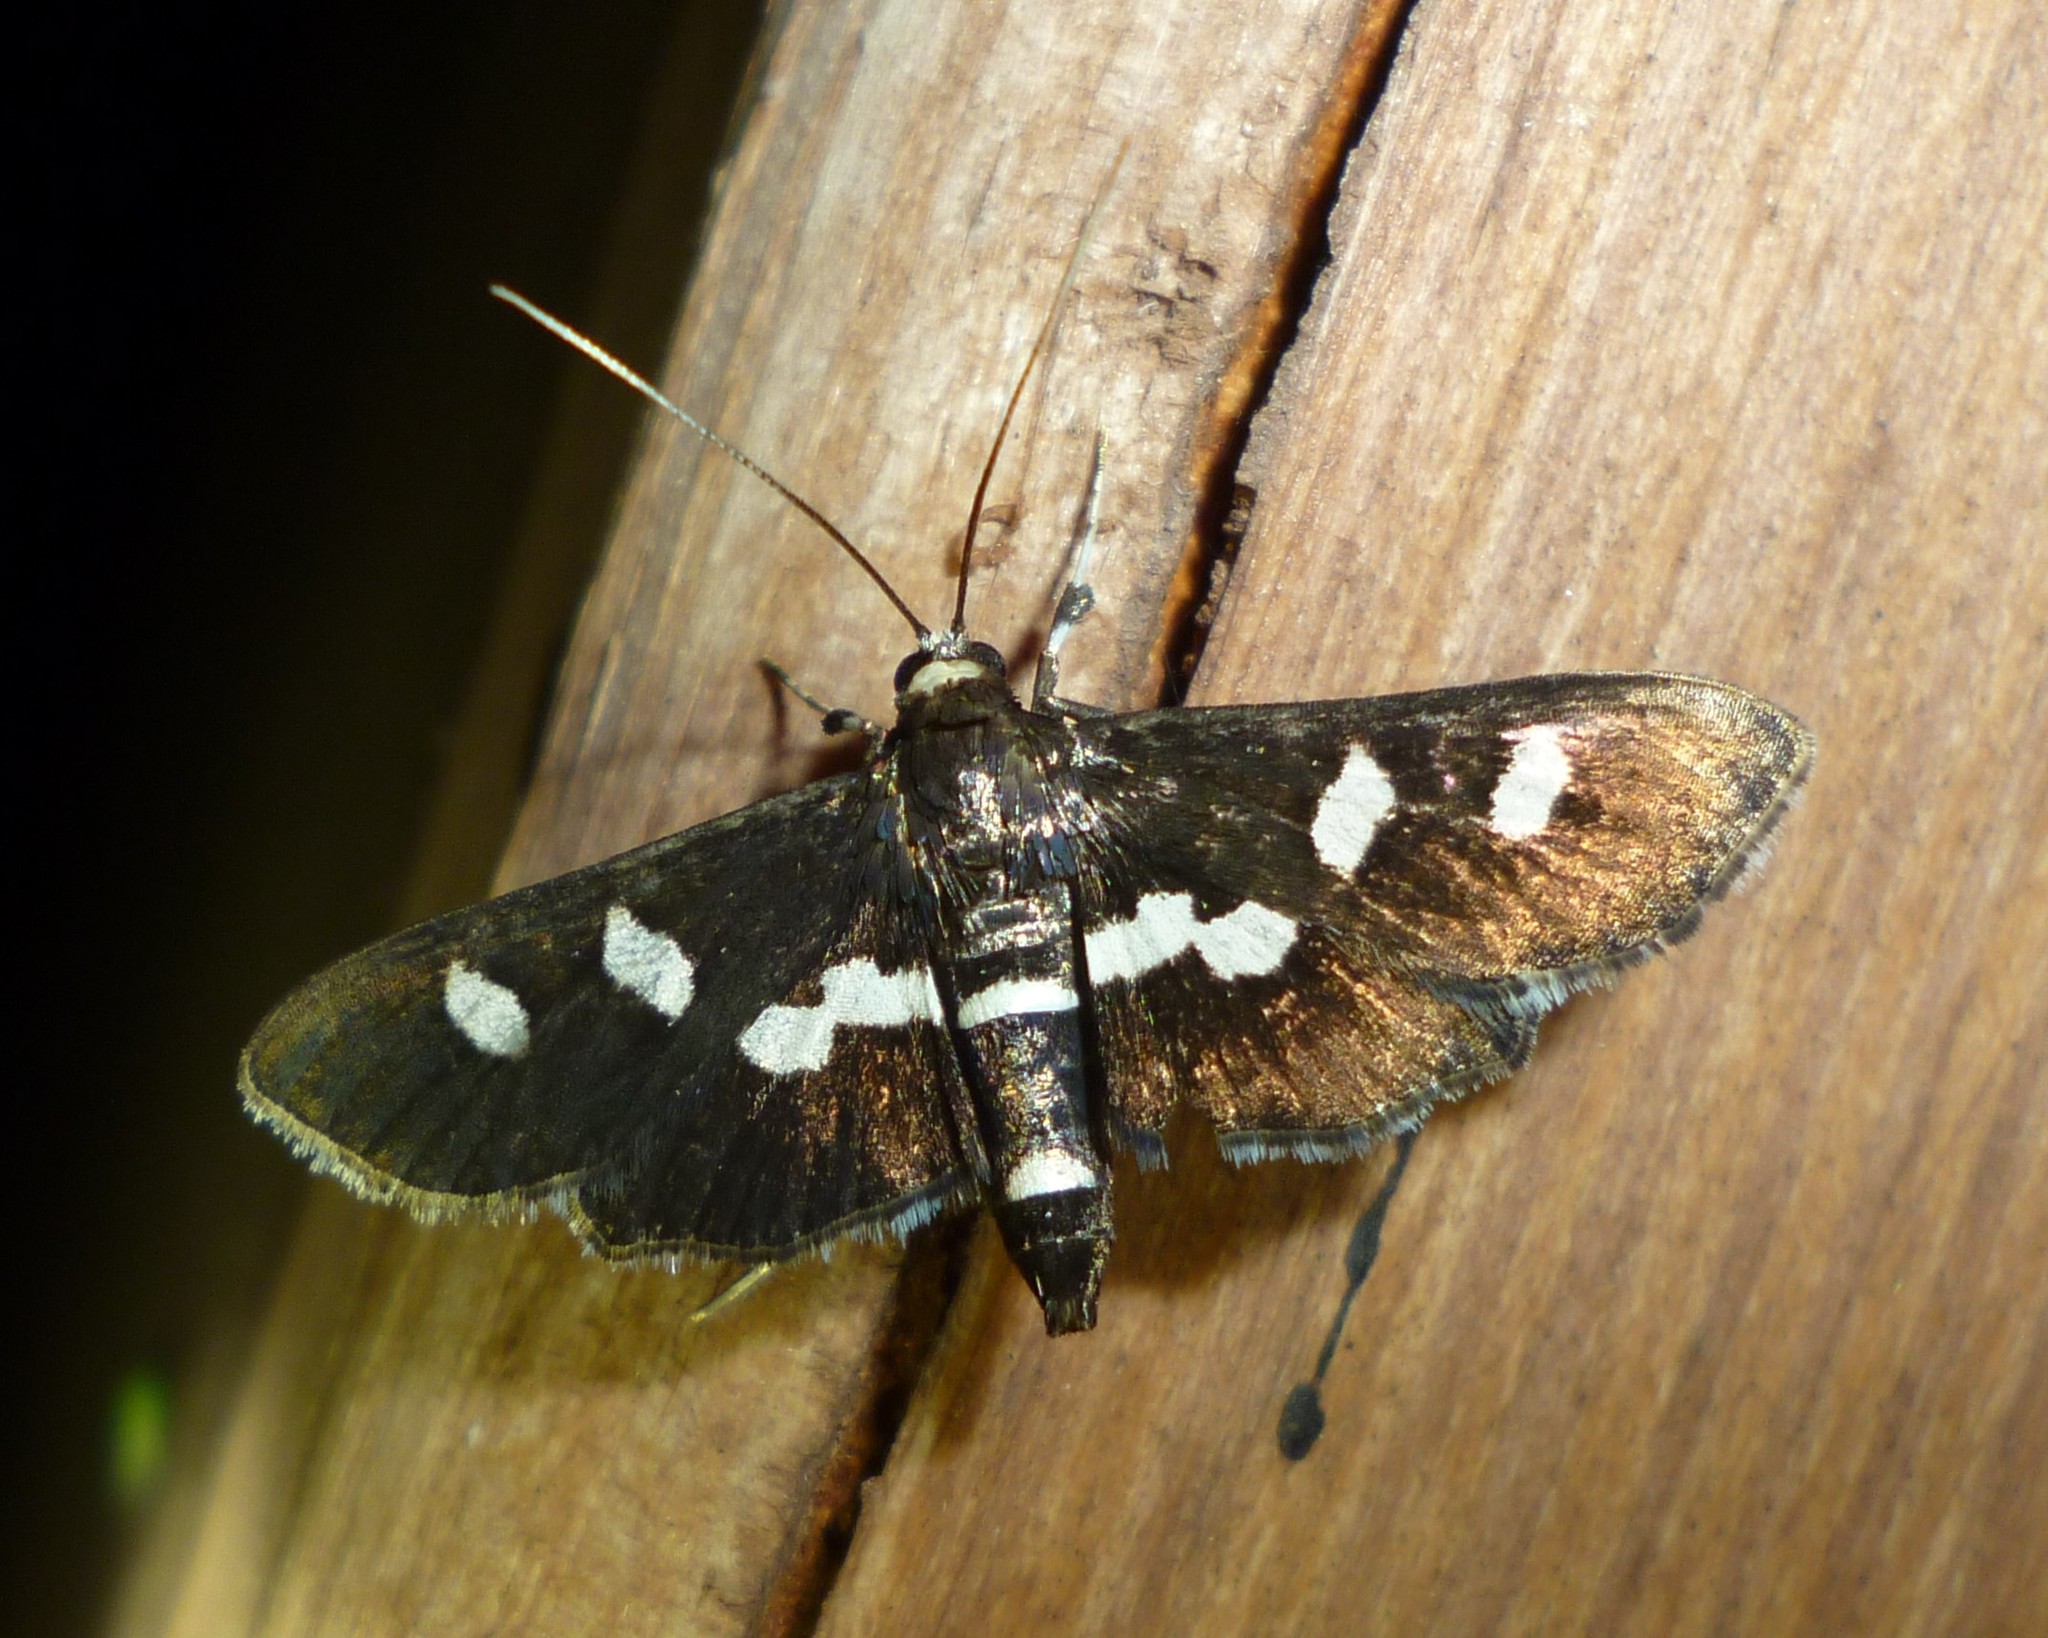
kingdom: Animalia
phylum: Arthropoda
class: Insecta
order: Lepidoptera
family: Crambidae
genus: Desmia
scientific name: Desmia
